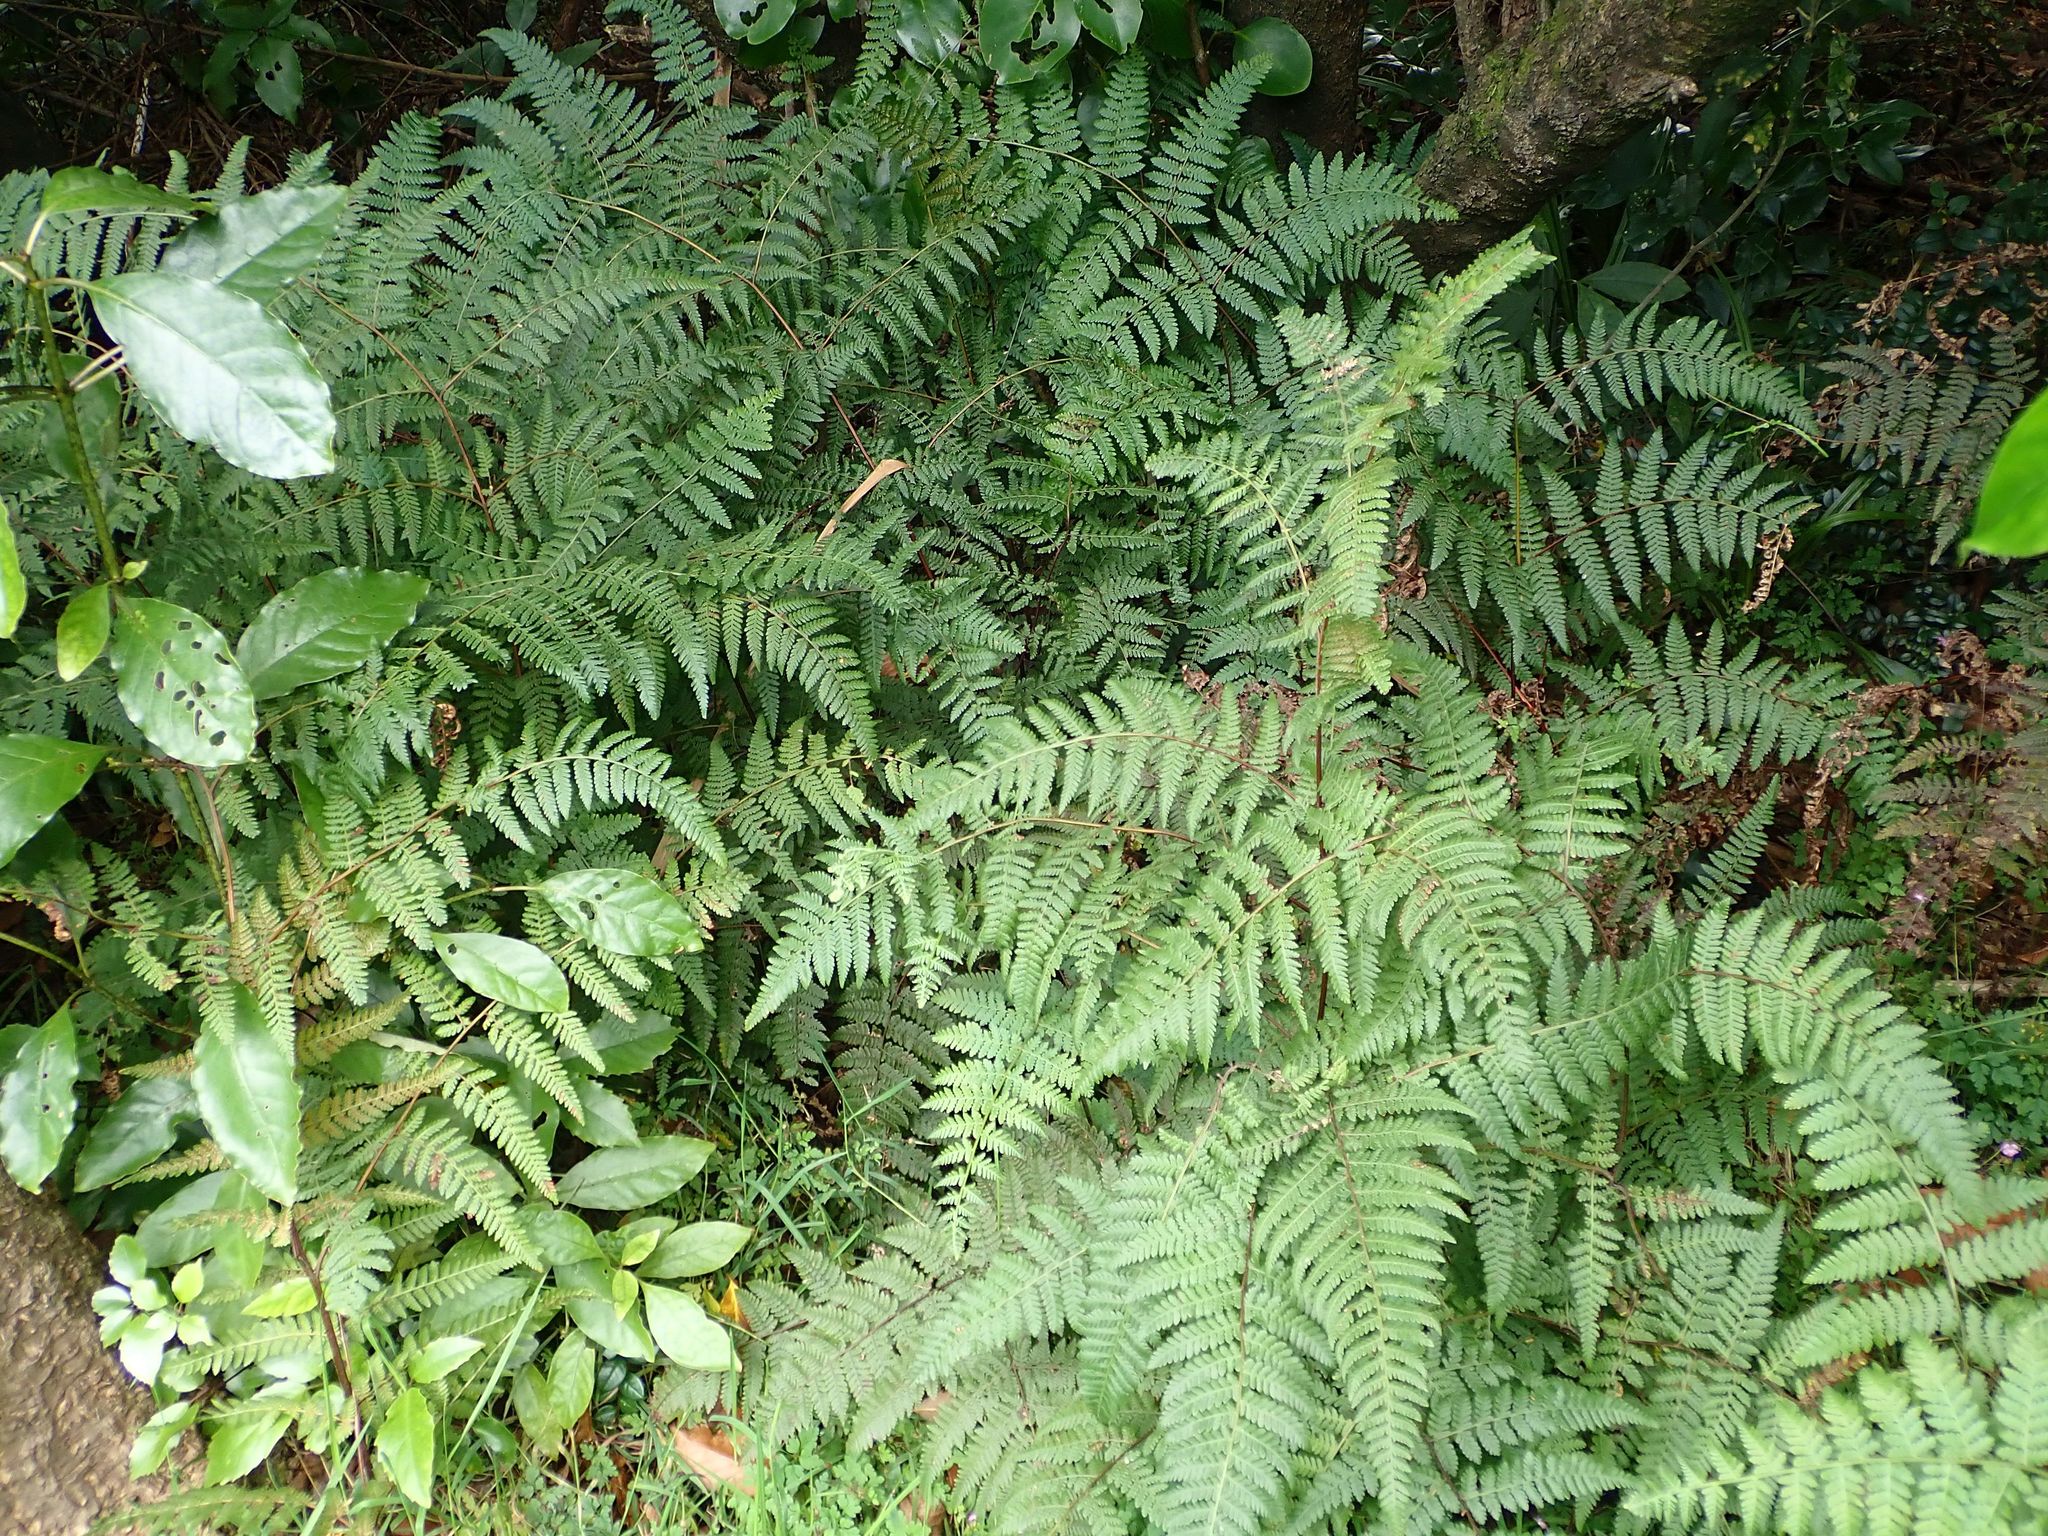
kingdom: Plantae
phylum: Tracheophyta
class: Polypodiopsida
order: Polypodiales
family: Dennstaedtiaceae
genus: Hypolepis
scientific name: Hypolepis ambigua
